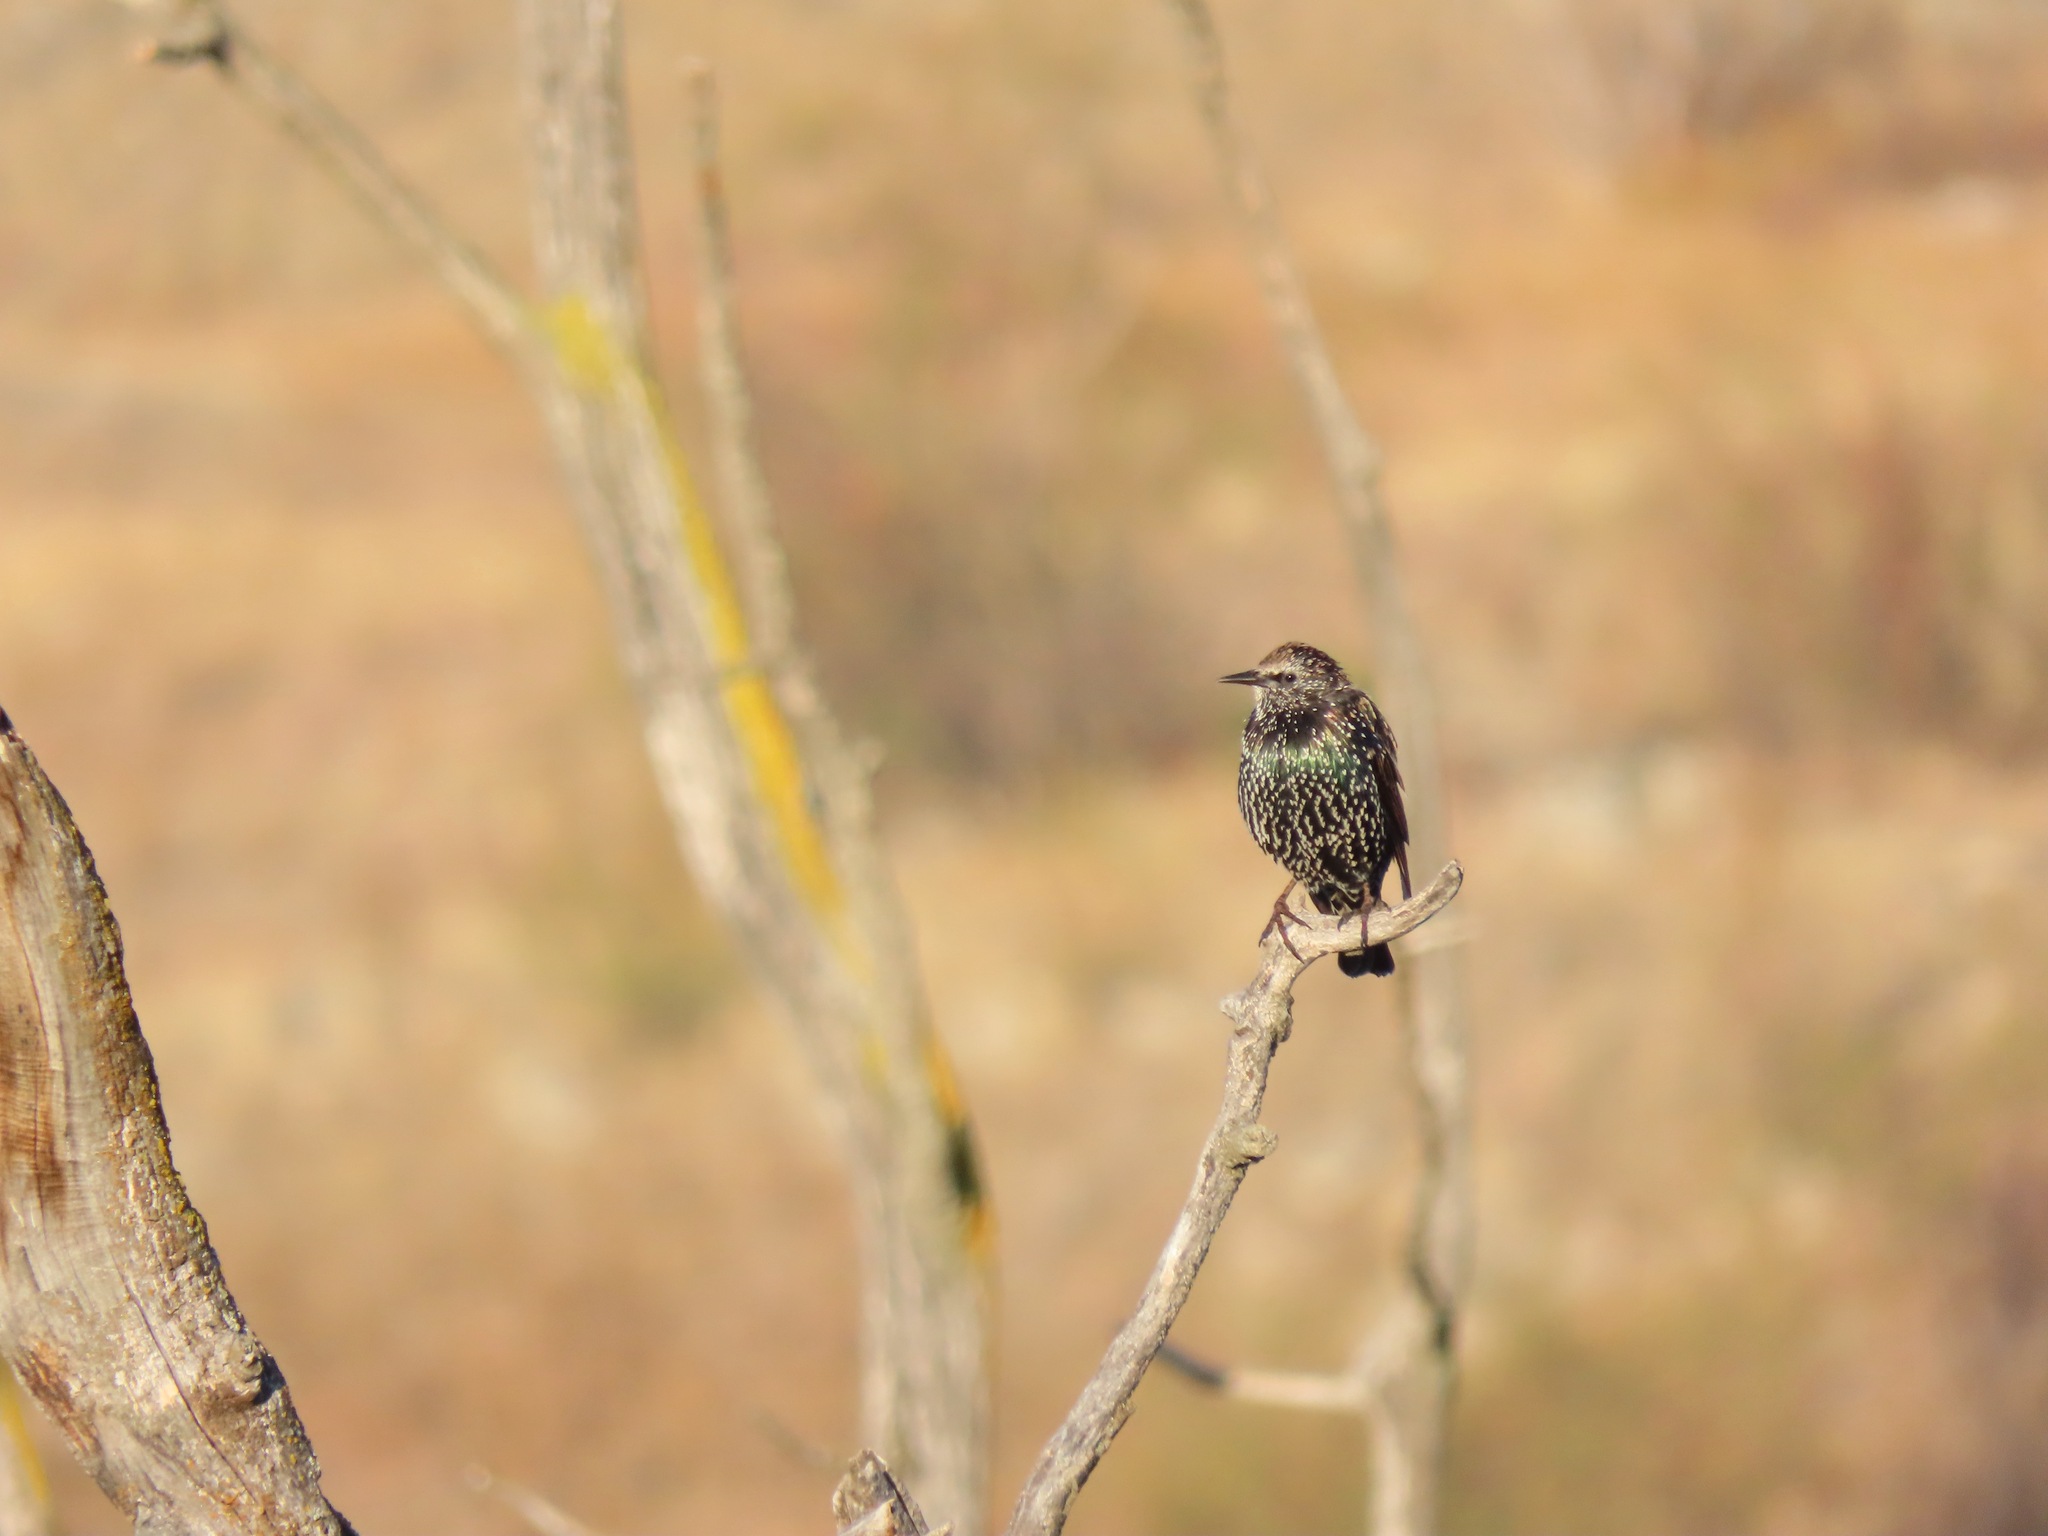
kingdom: Animalia
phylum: Chordata
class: Aves
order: Passeriformes
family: Sturnidae
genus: Sturnus
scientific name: Sturnus vulgaris
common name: Common starling
